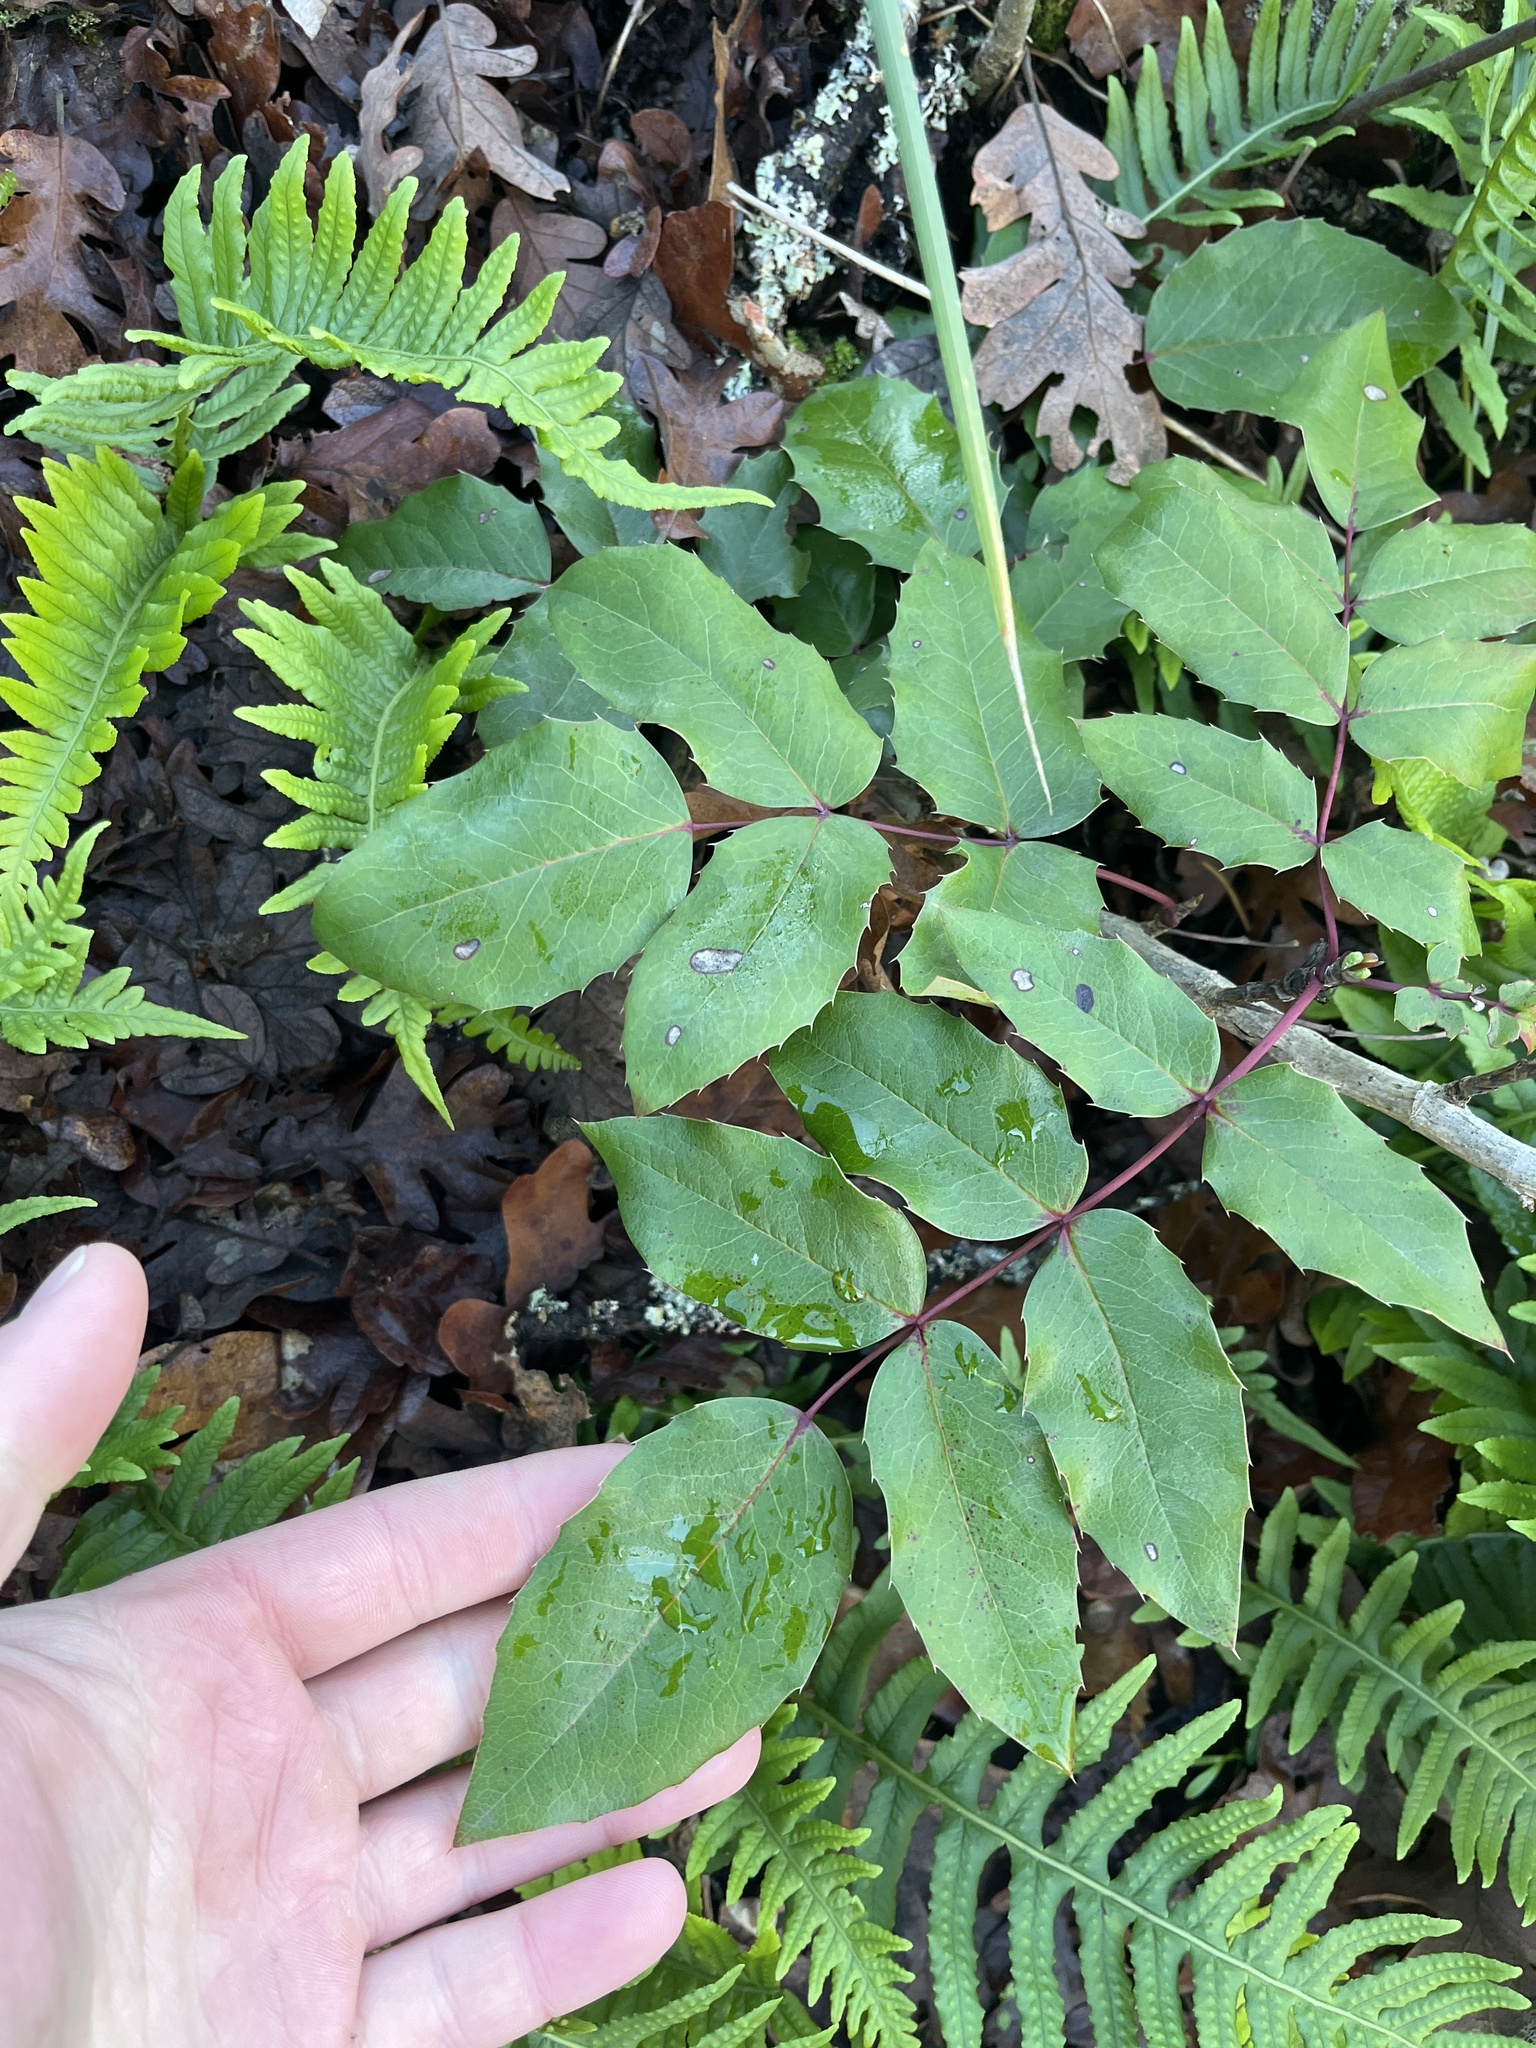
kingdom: Plantae
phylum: Tracheophyta
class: Magnoliopsida
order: Ranunculales
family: Berberidaceae
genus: Mahonia
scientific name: Mahonia aquifolium
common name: Oregon-grape
